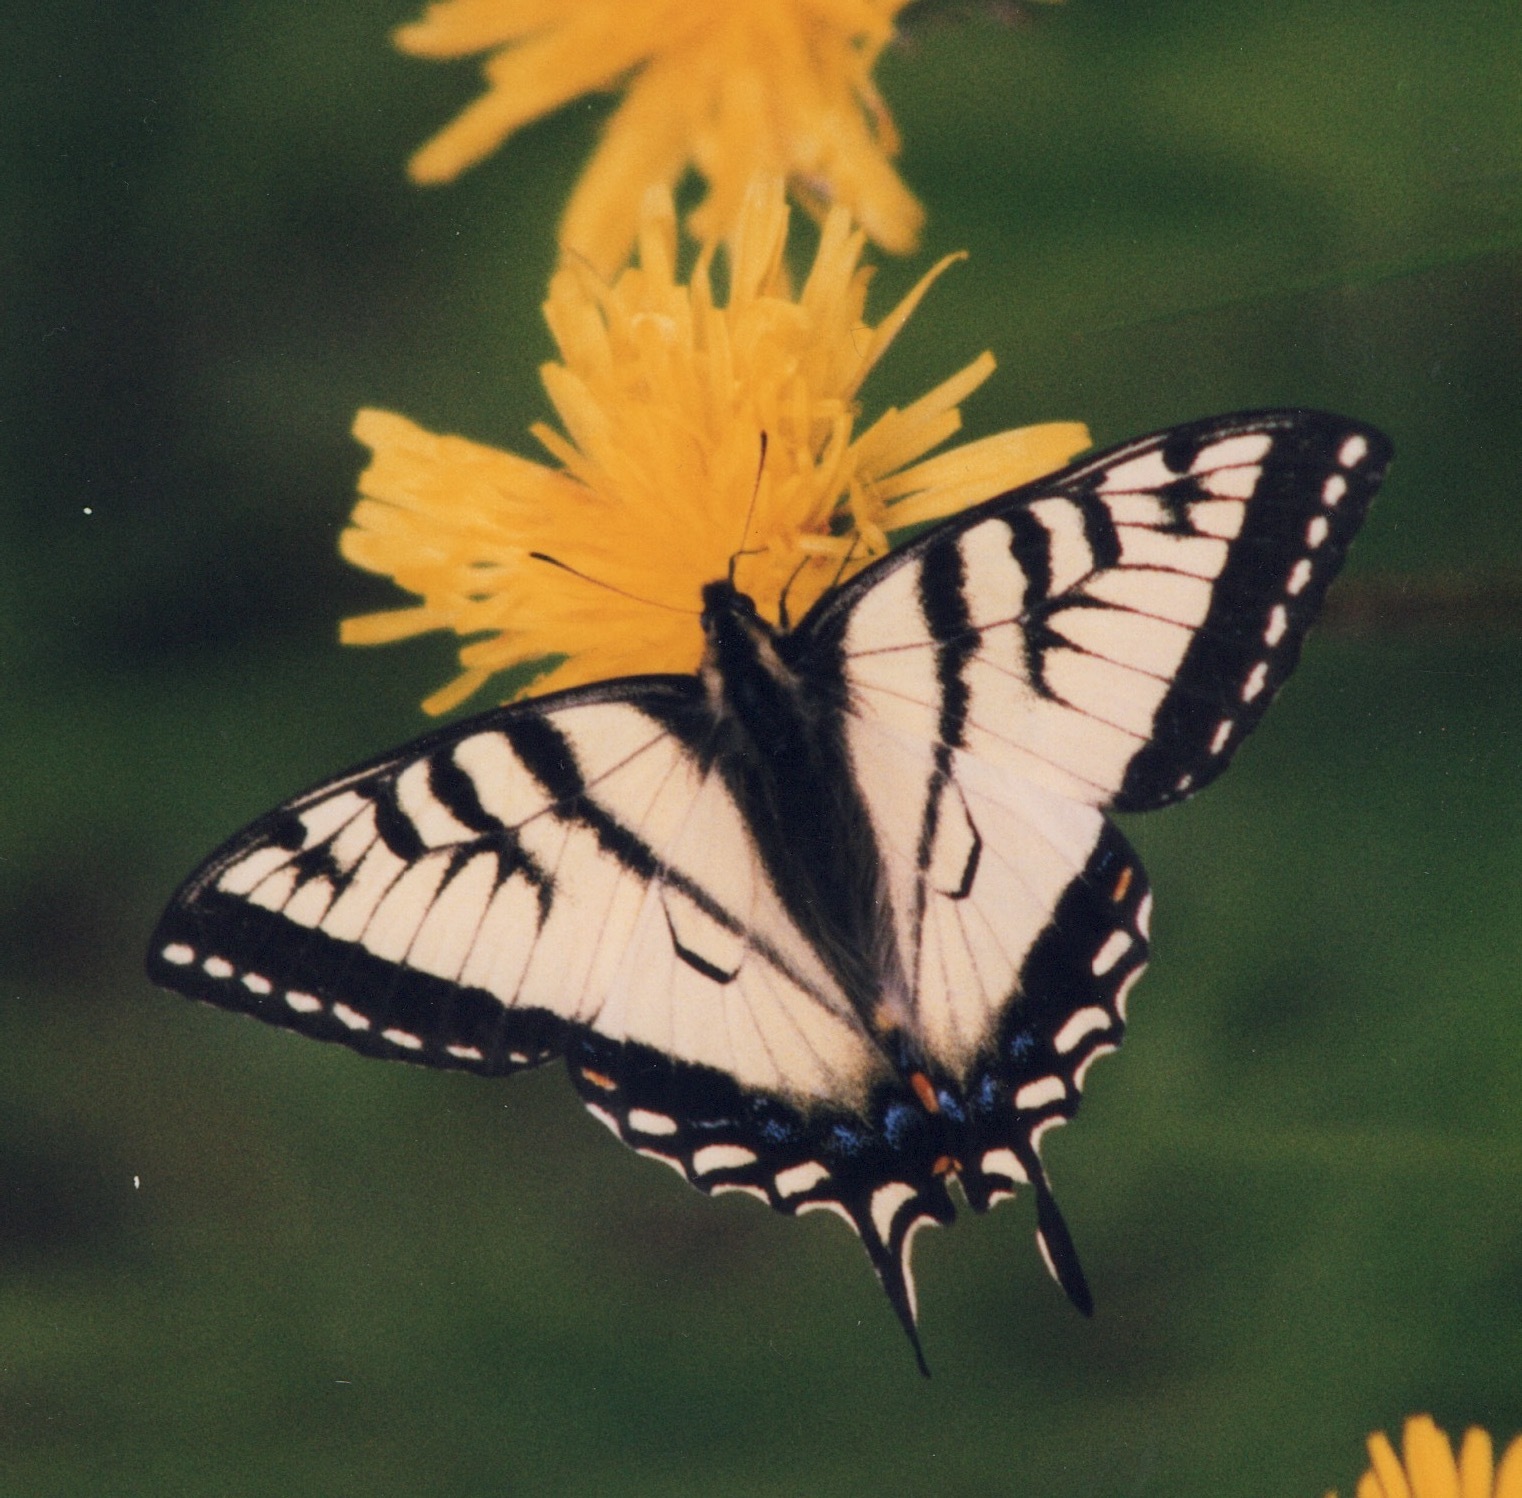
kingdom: Animalia
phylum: Arthropoda
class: Insecta
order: Lepidoptera
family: Papilionidae
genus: Papilio
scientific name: Papilio canadensis
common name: Canadian tiger swallowtail
